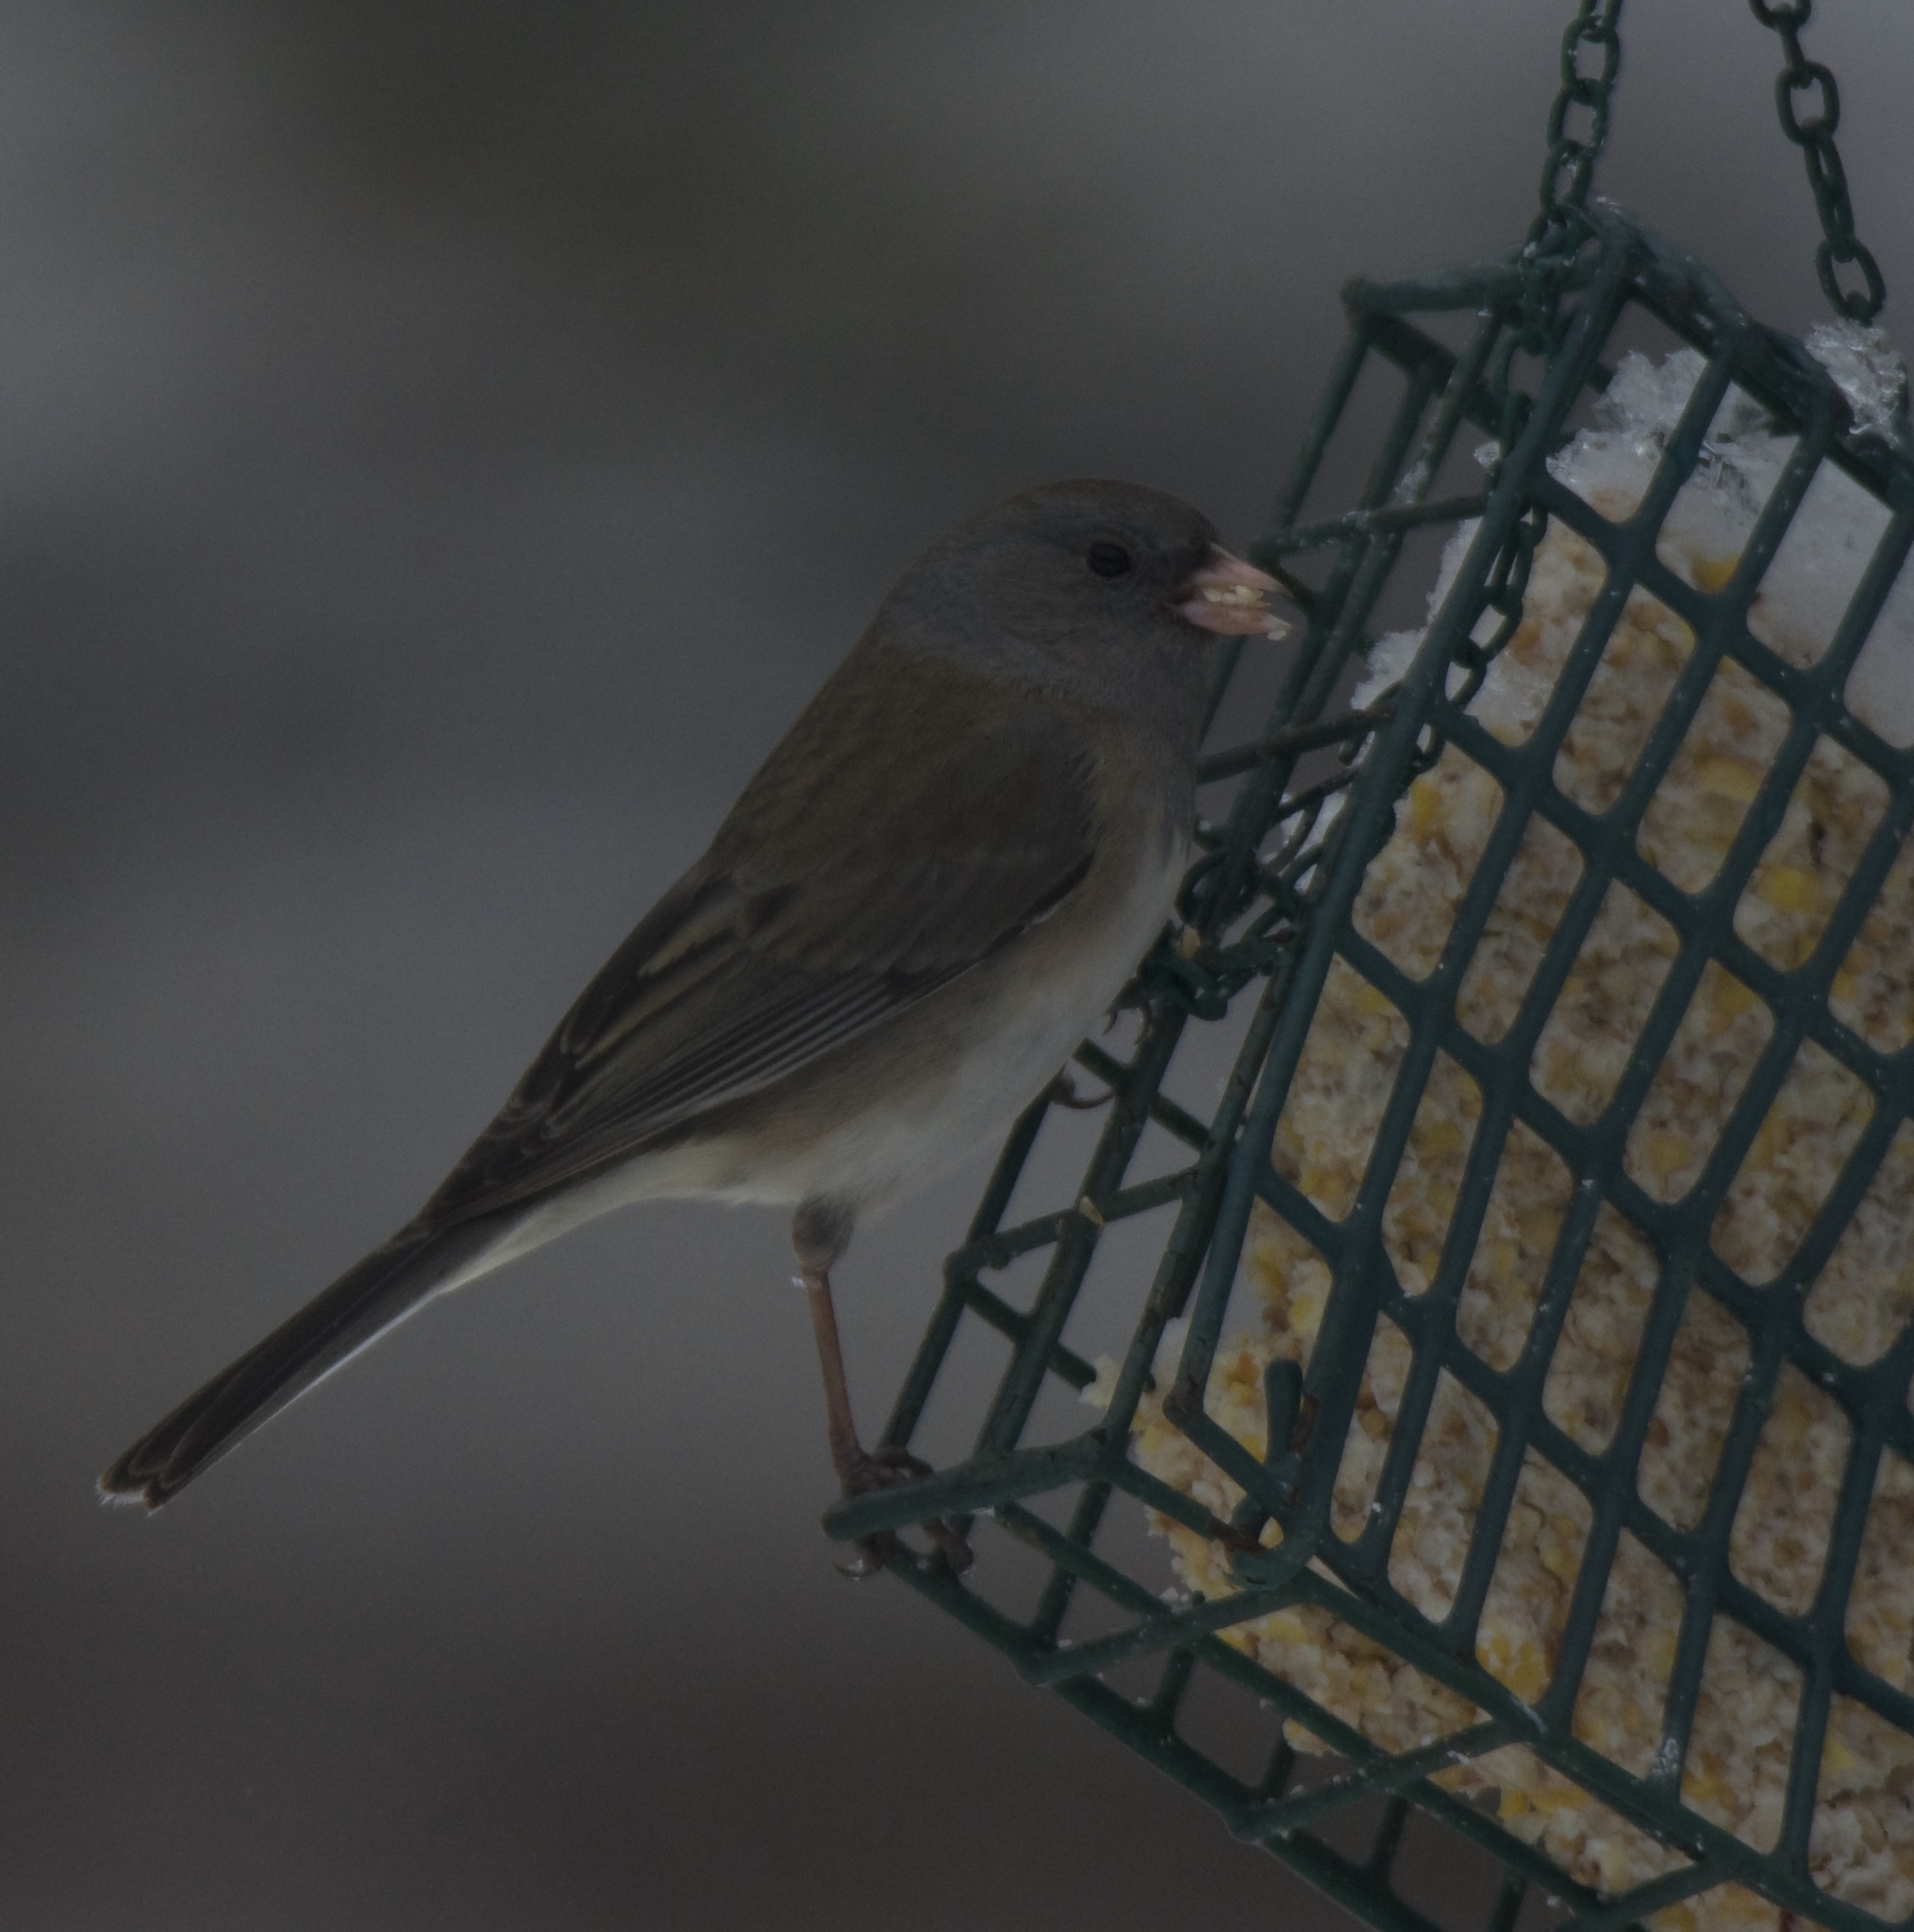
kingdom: Animalia
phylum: Chordata
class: Aves
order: Passeriformes
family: Passerellidae
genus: Junco
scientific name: Junco hyemalis
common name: Dark-eyed junco
